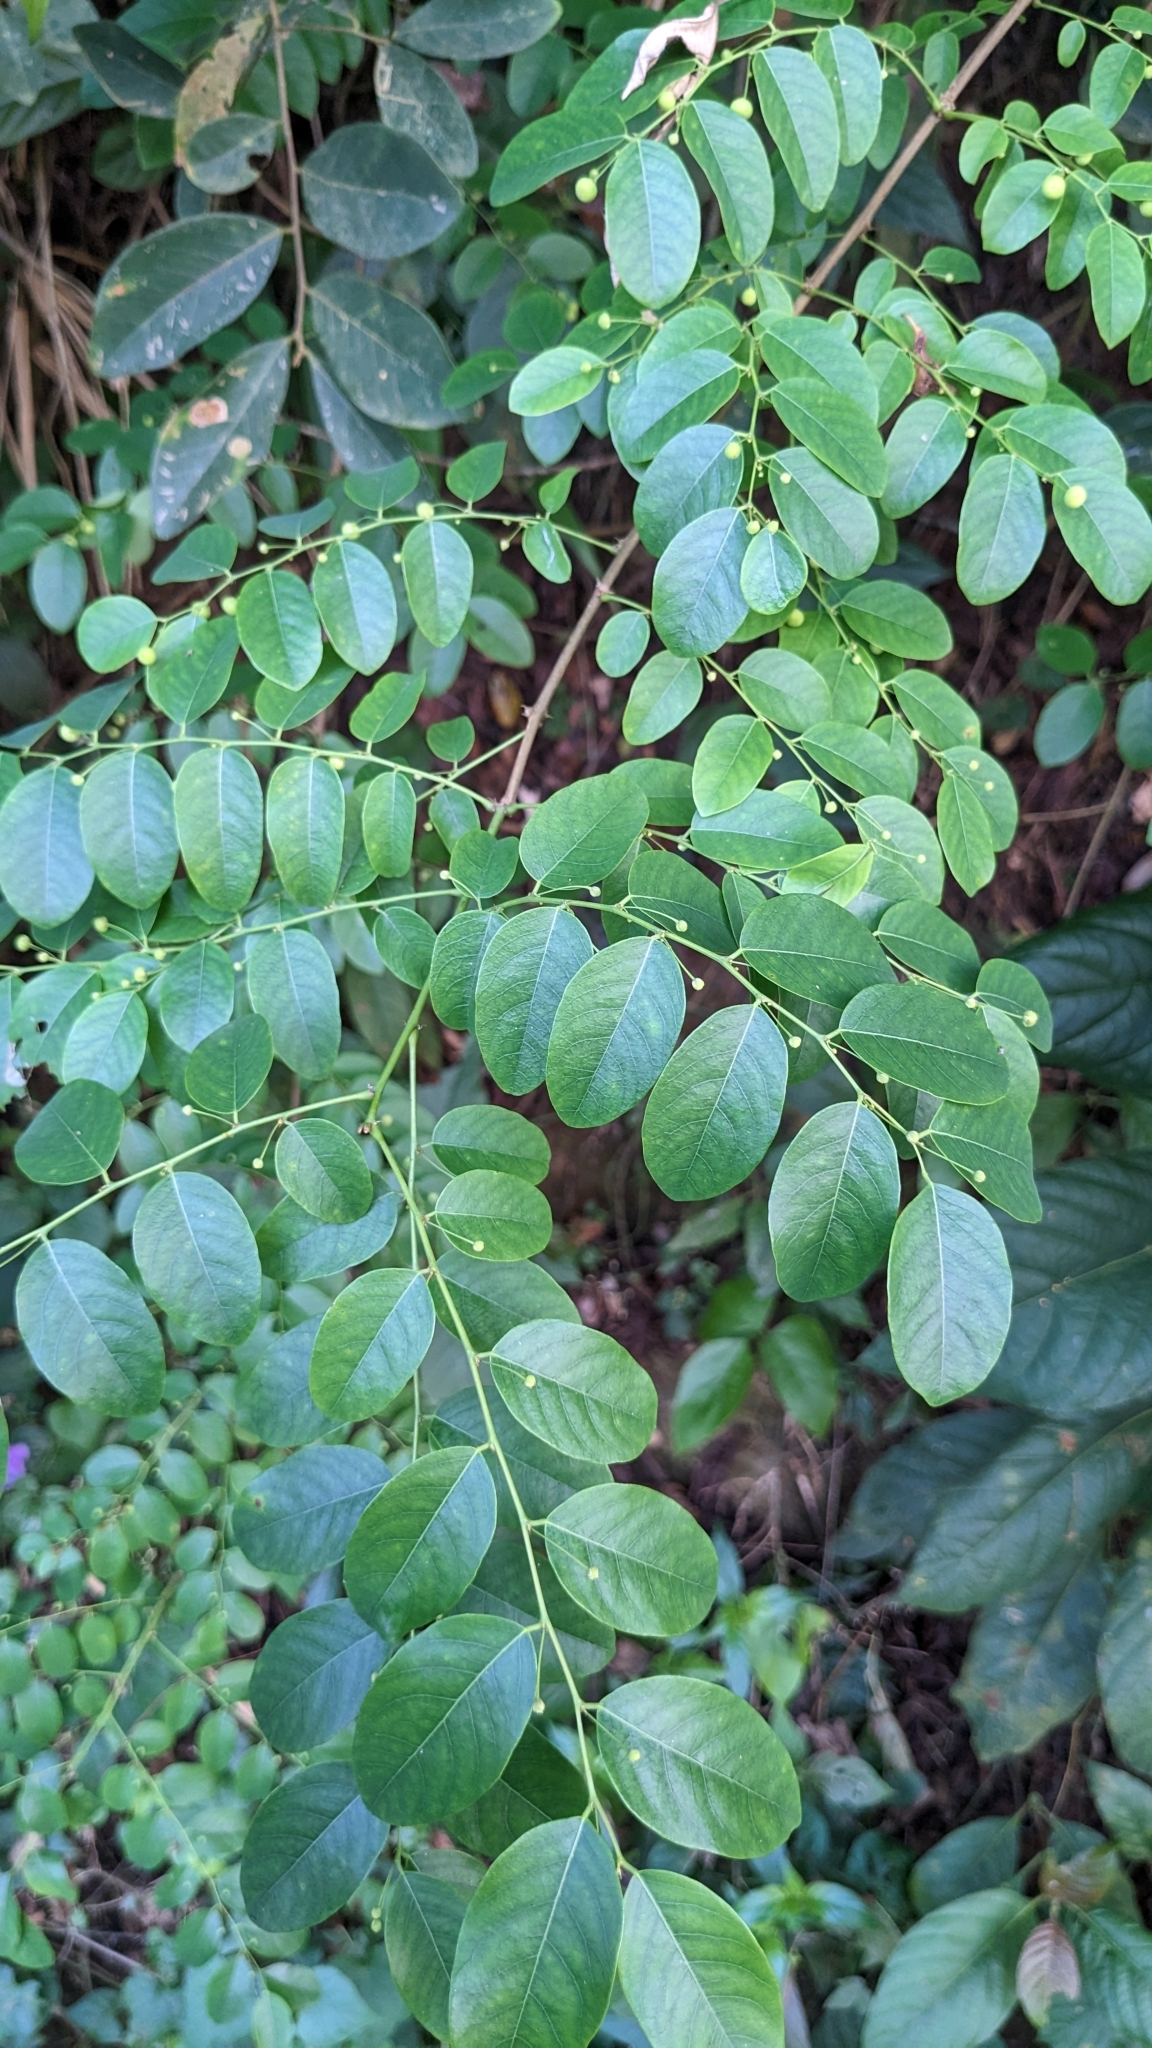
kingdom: Plantae
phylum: Tracheophyta
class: Magnoliopsida
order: Malpighiales
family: Phyllanthaceae
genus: Phyllanthus
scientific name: Phyllanthus reticulatus
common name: Potato bush
